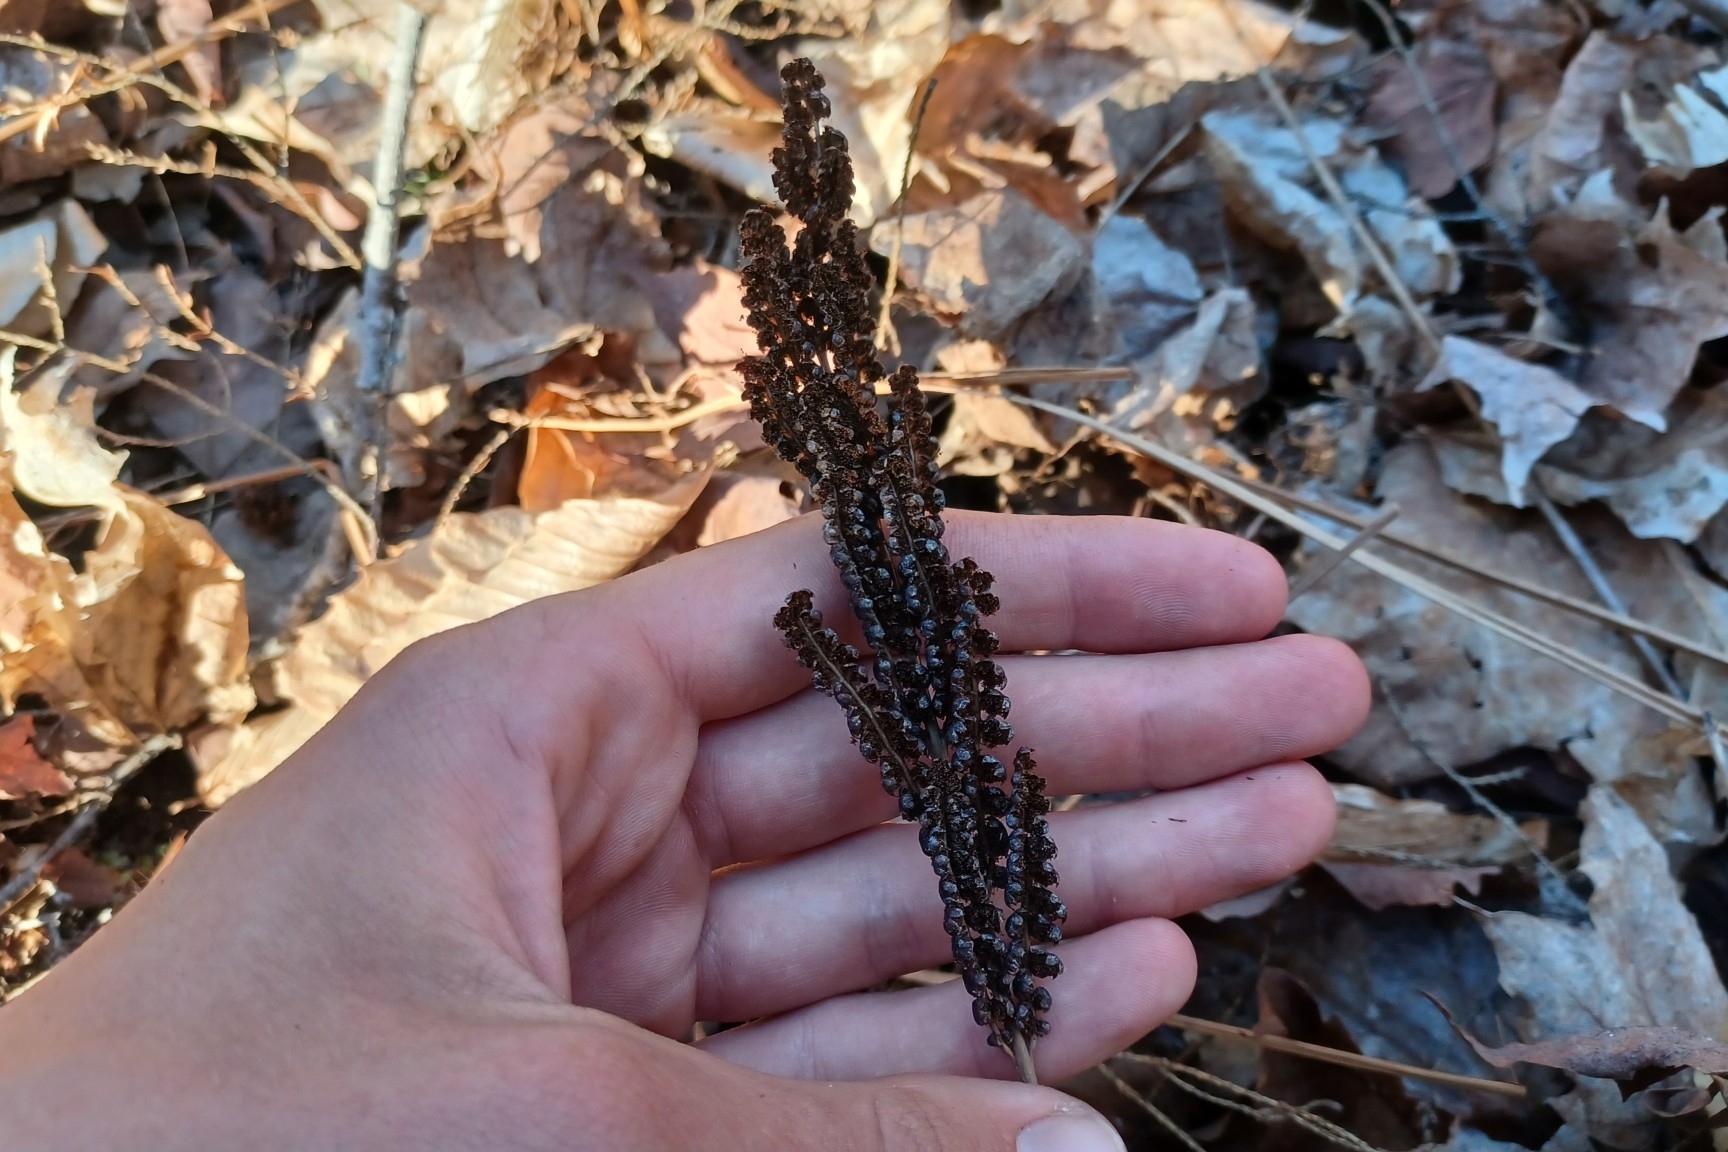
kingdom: Plantae
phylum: Tracheophyta
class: Polypodiopsida
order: Polypodiales
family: Onocleaceae
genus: Onoclea
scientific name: Onoclea sensibilis
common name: Sensitive fern
